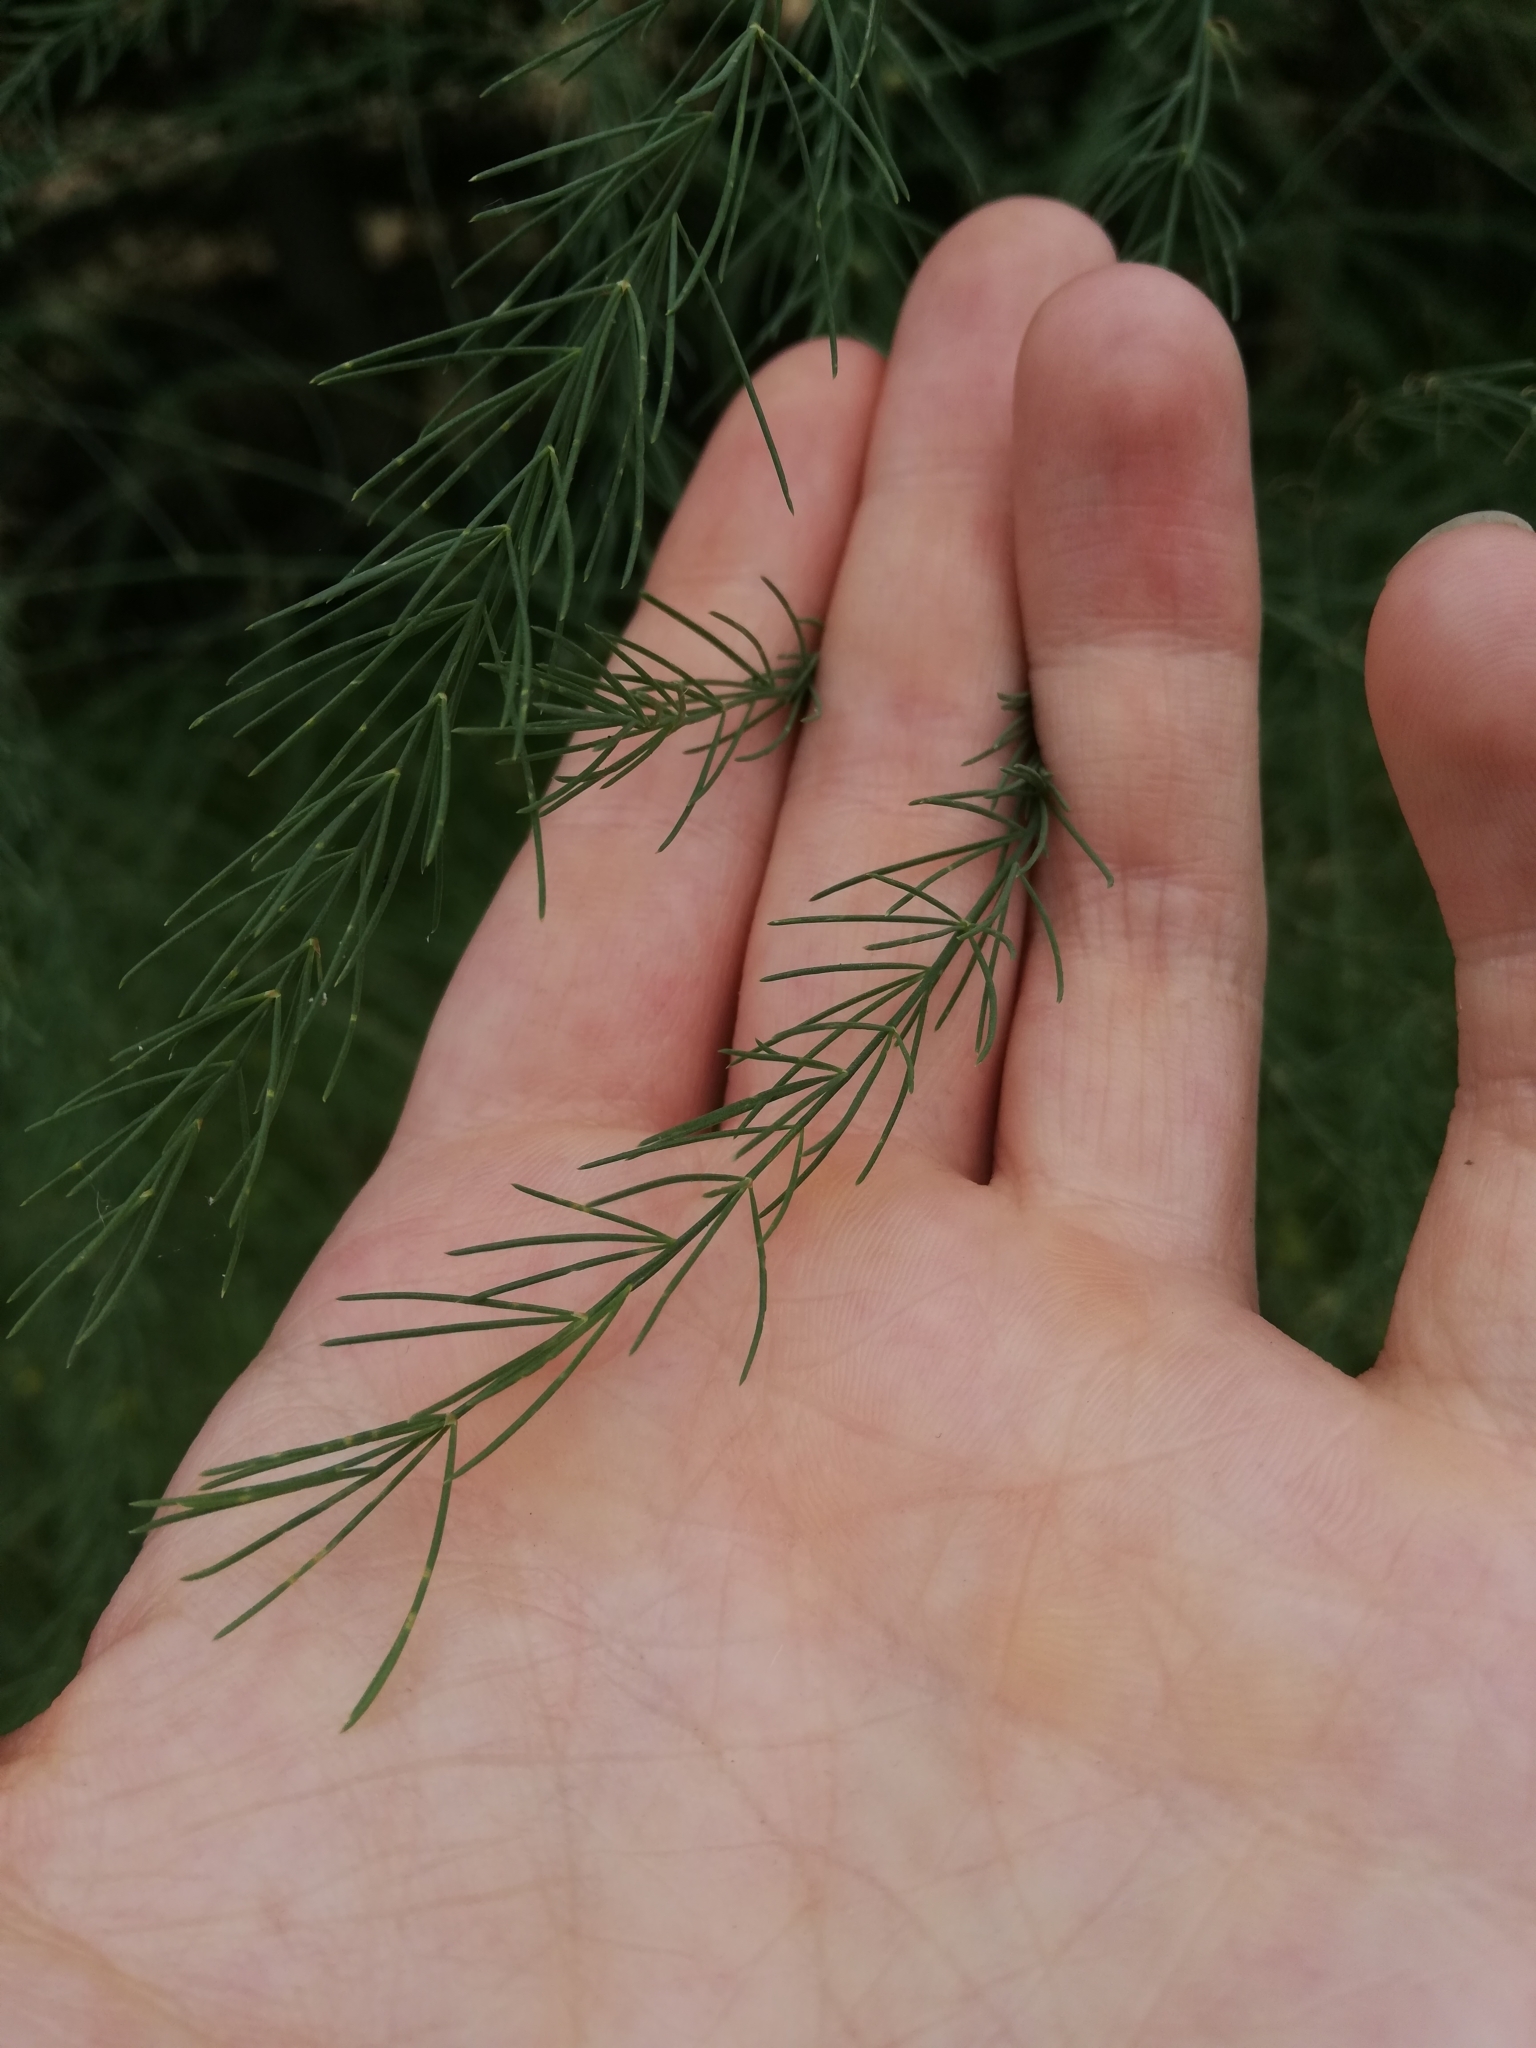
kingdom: Plantae
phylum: Tracheophyta
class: Liliopsida
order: Asparagales
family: Asparagaceae
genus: Asparagus
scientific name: Asparagus officinalis
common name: Garden asparagus
